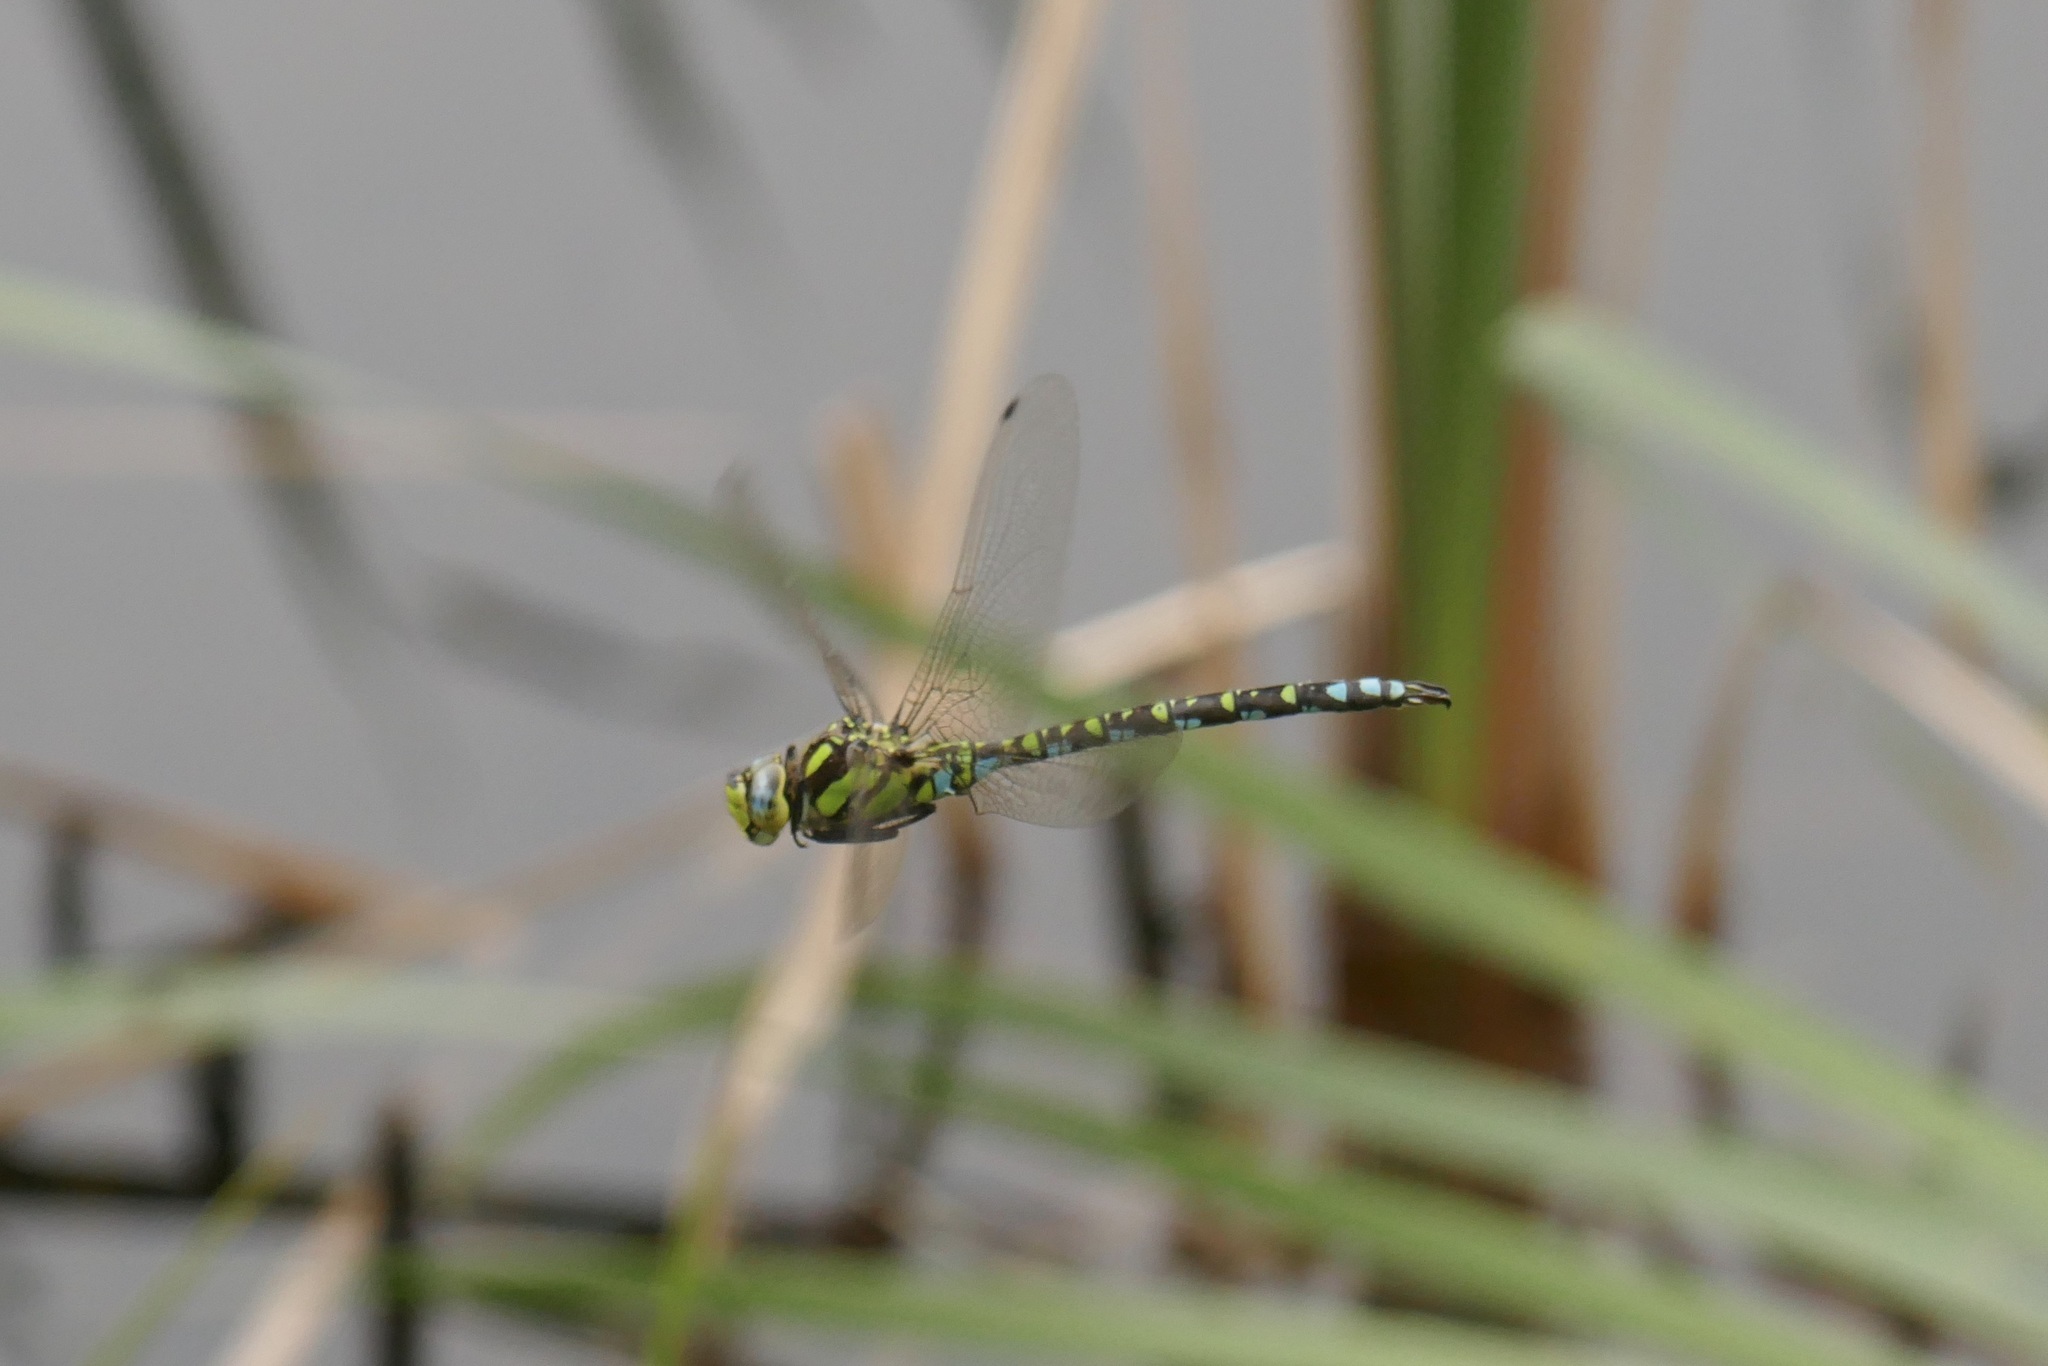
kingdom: Animalia
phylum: Arthropoda
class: Insecta
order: Odonata
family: Aeshnidae
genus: Aeshna
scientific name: Aeshna cyanea
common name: Southern hawker
